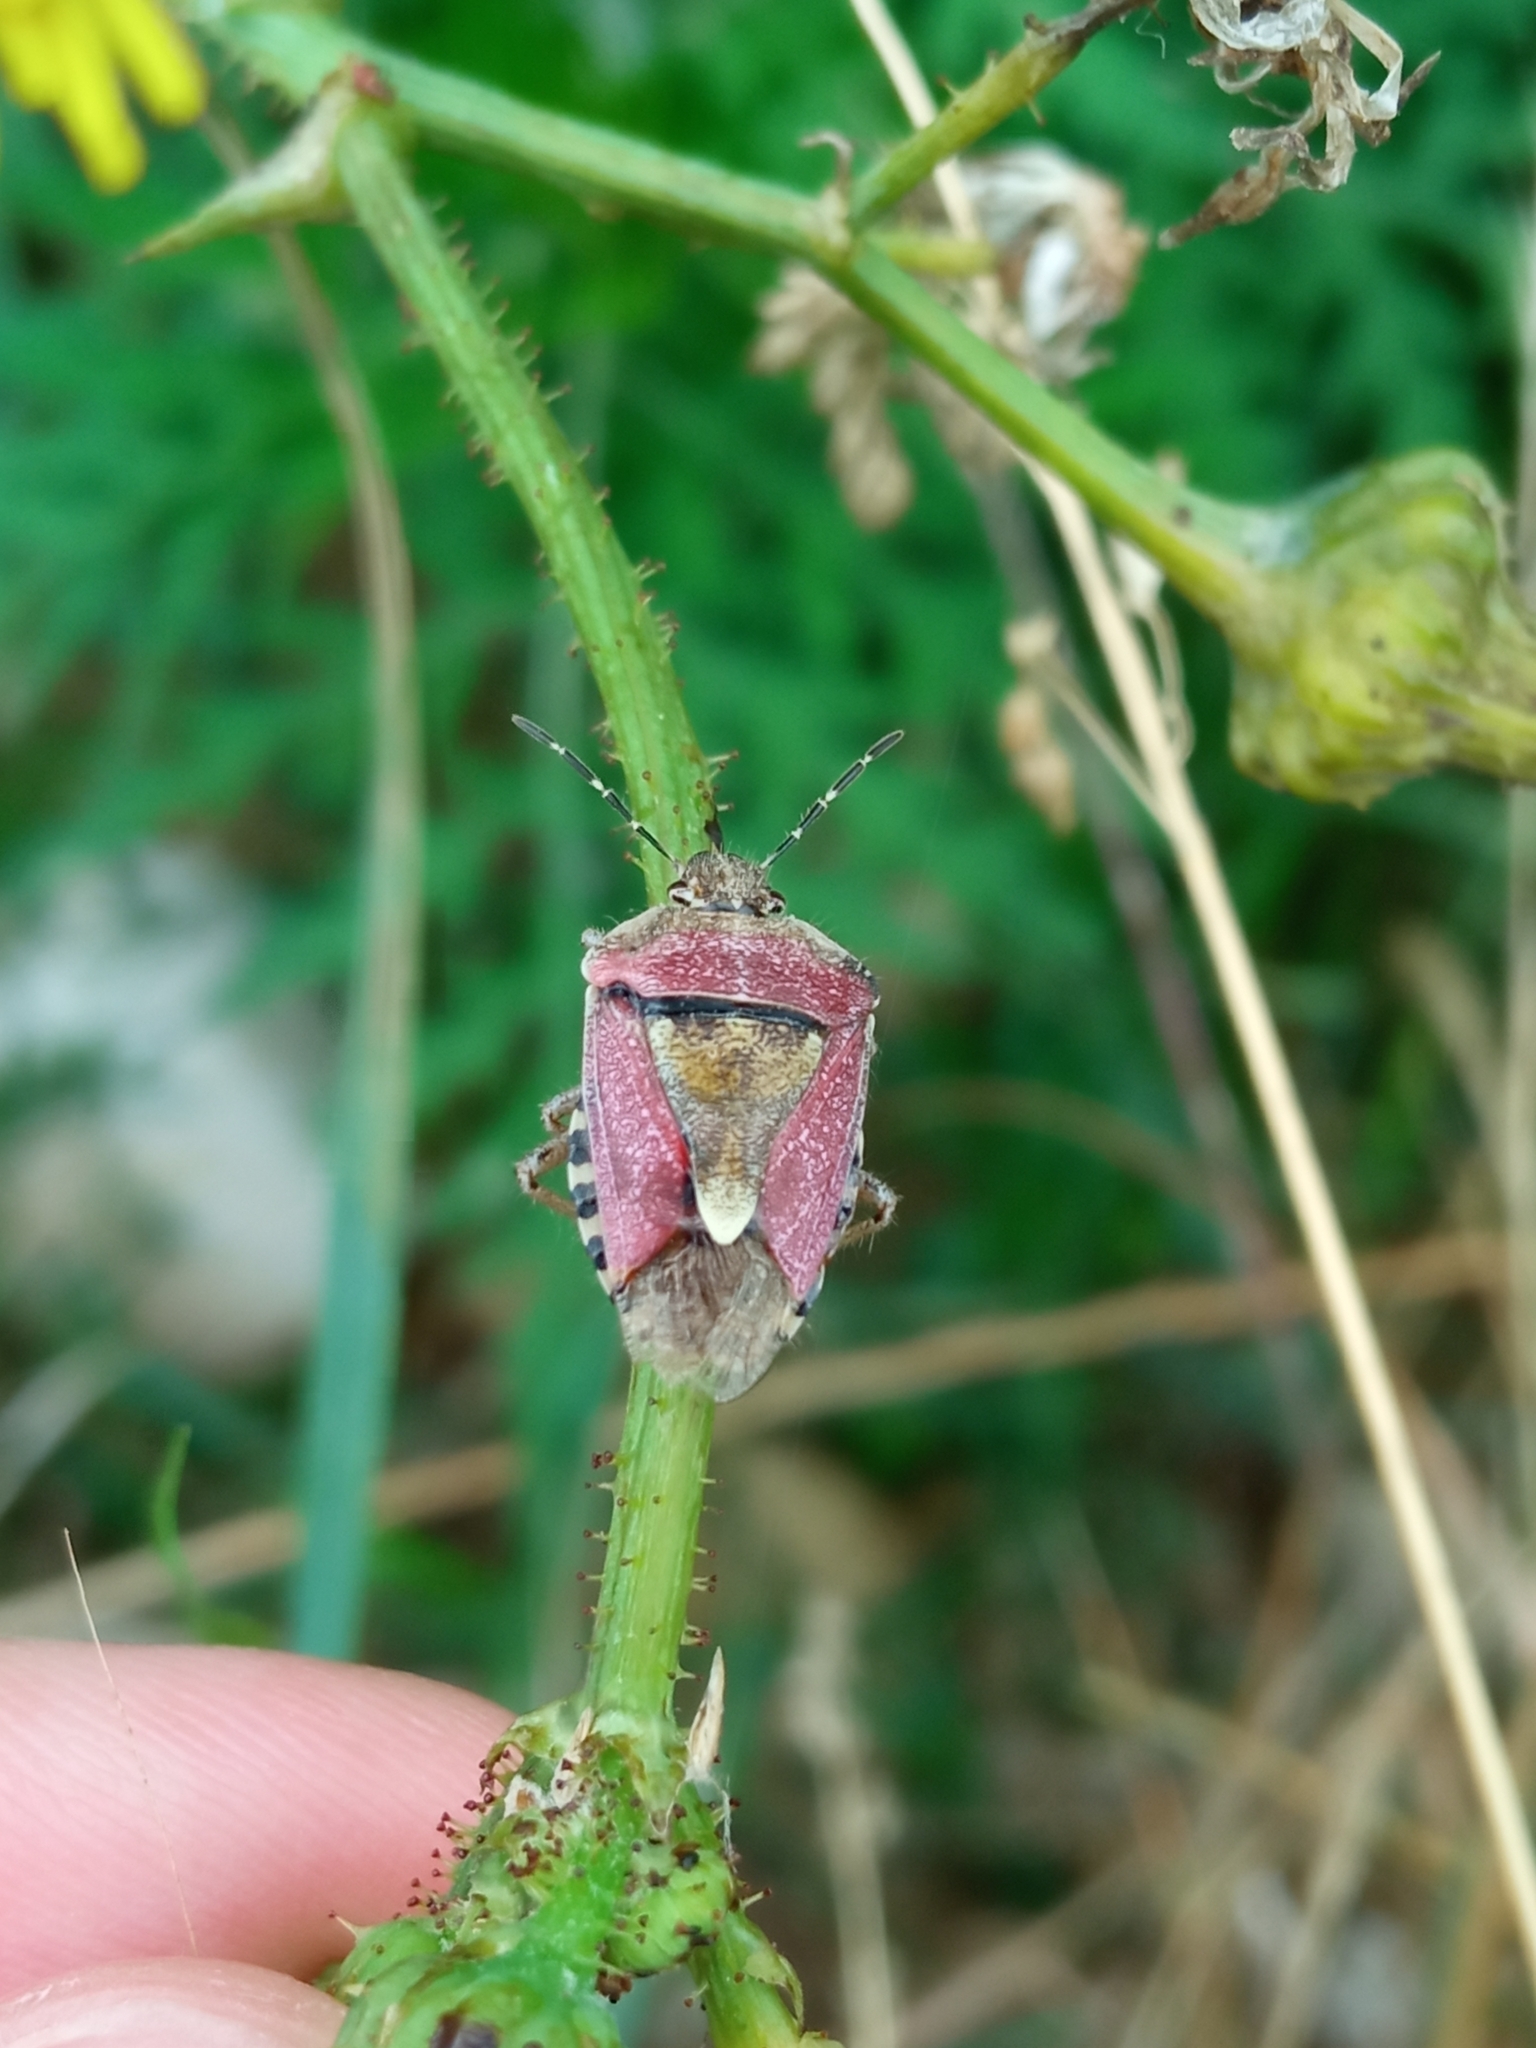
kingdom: Animalia
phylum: Arthropoda
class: Insecta
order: Hemiptera
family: Pentatomidae
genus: Dolycoris
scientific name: Dolycoris baccarum
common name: Sloe bug
